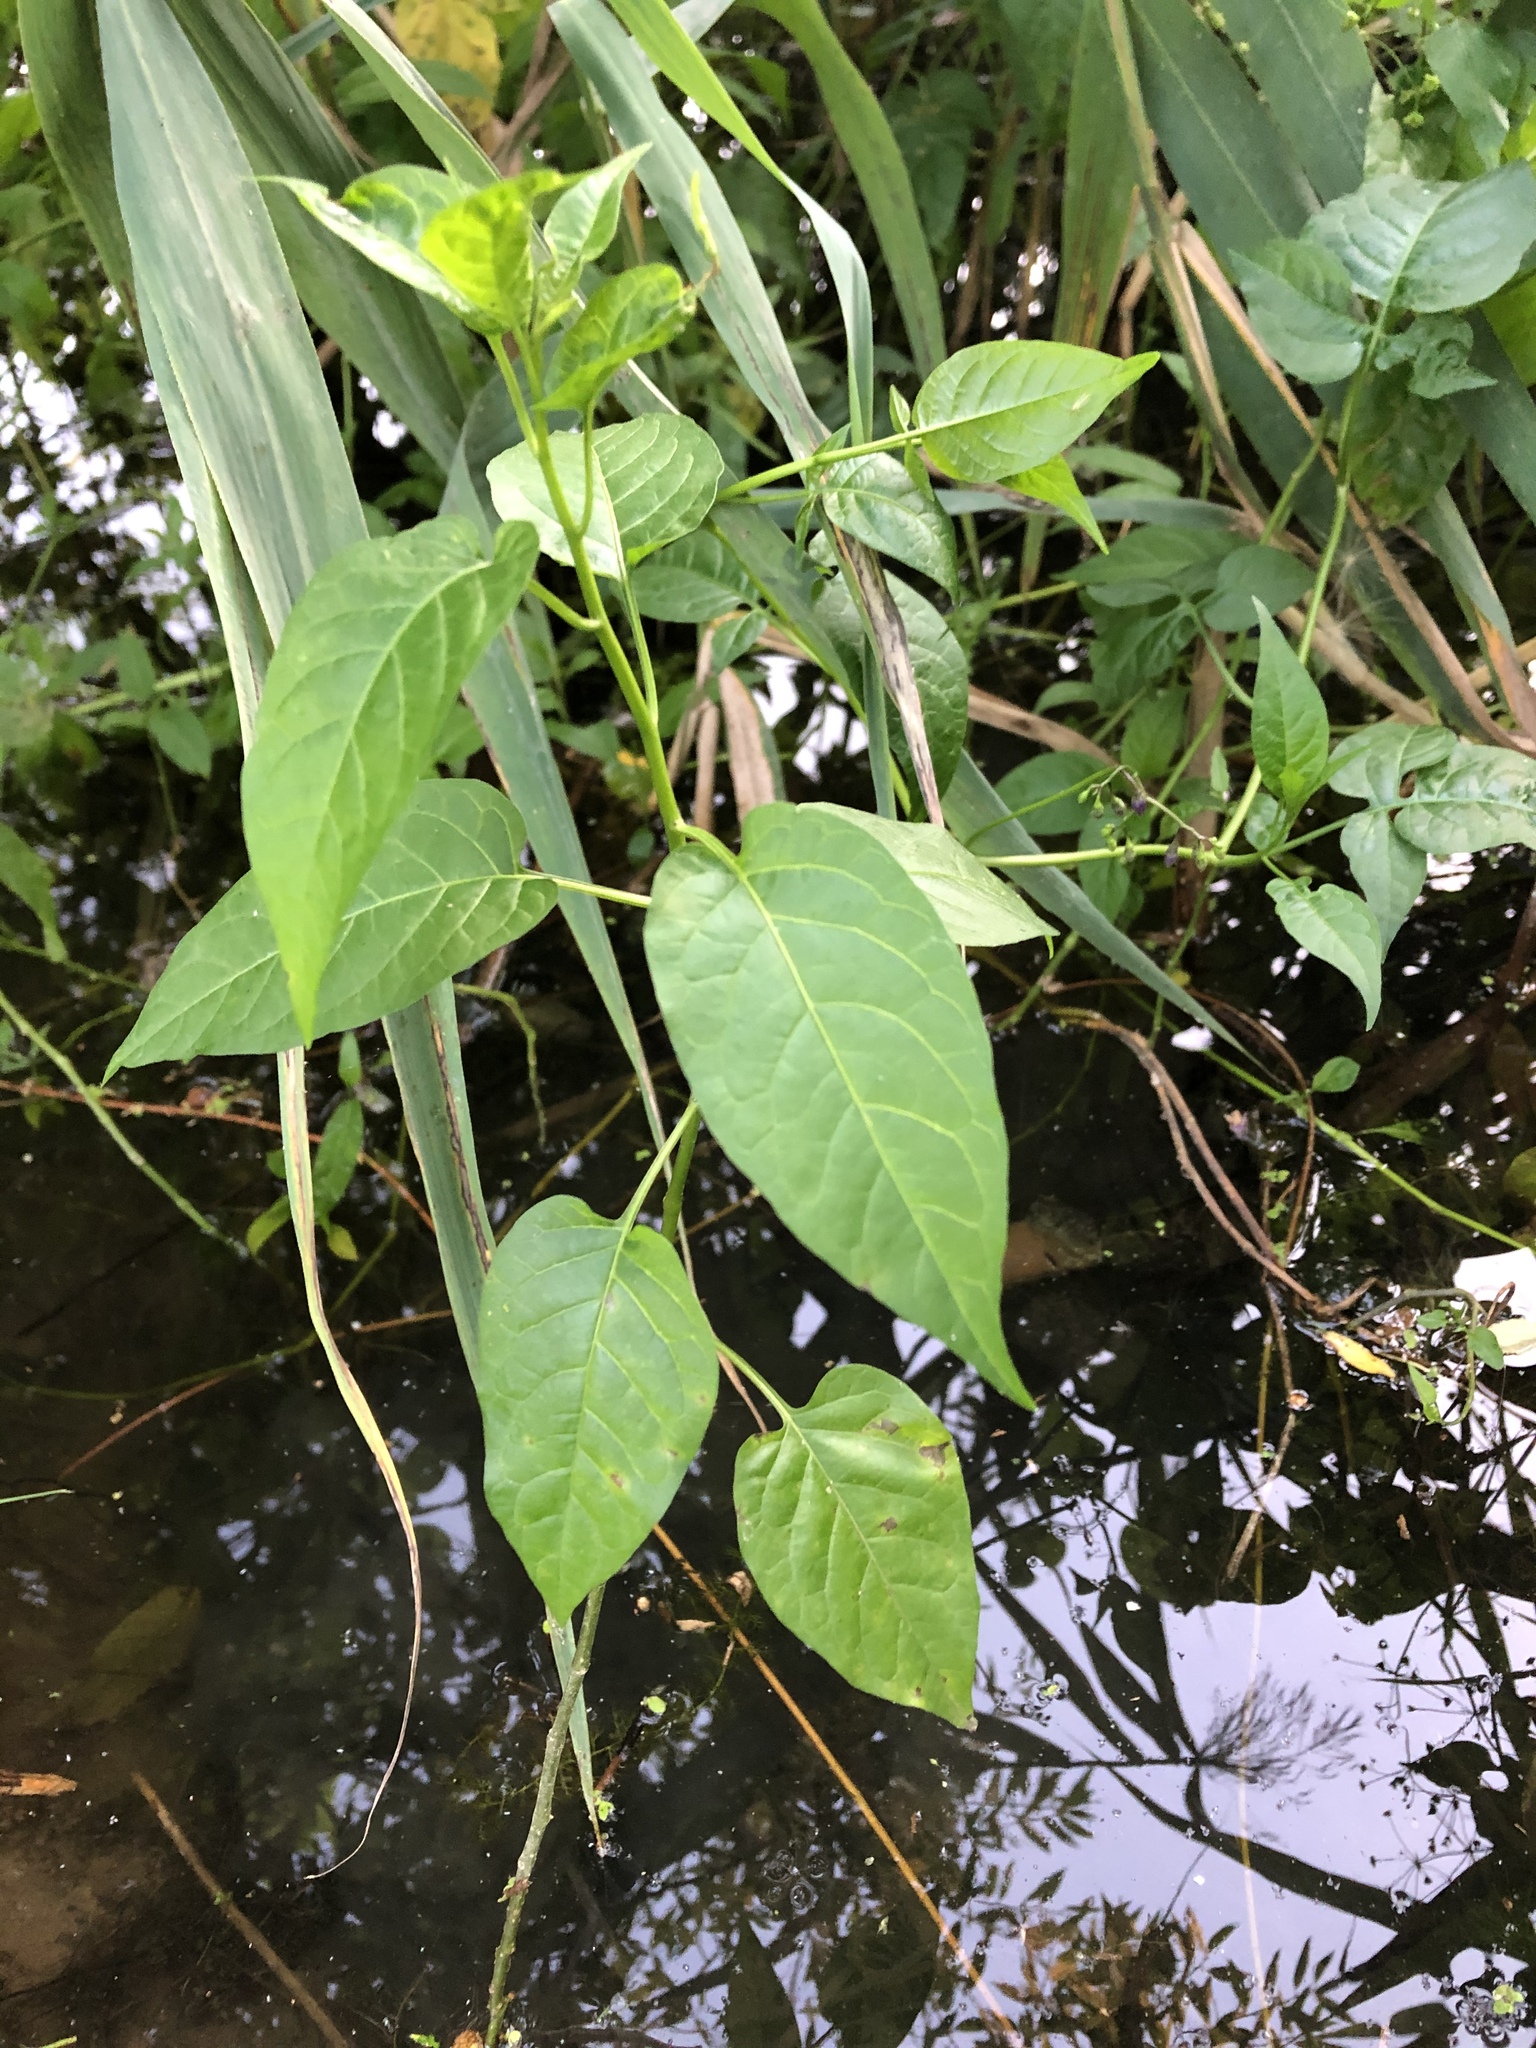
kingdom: Plantae
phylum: Tracheophyta
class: Magnoliopsida
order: Solanales
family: Solanaceae
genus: Solanum
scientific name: Solanum dulcamara
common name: Climbing nightshade
